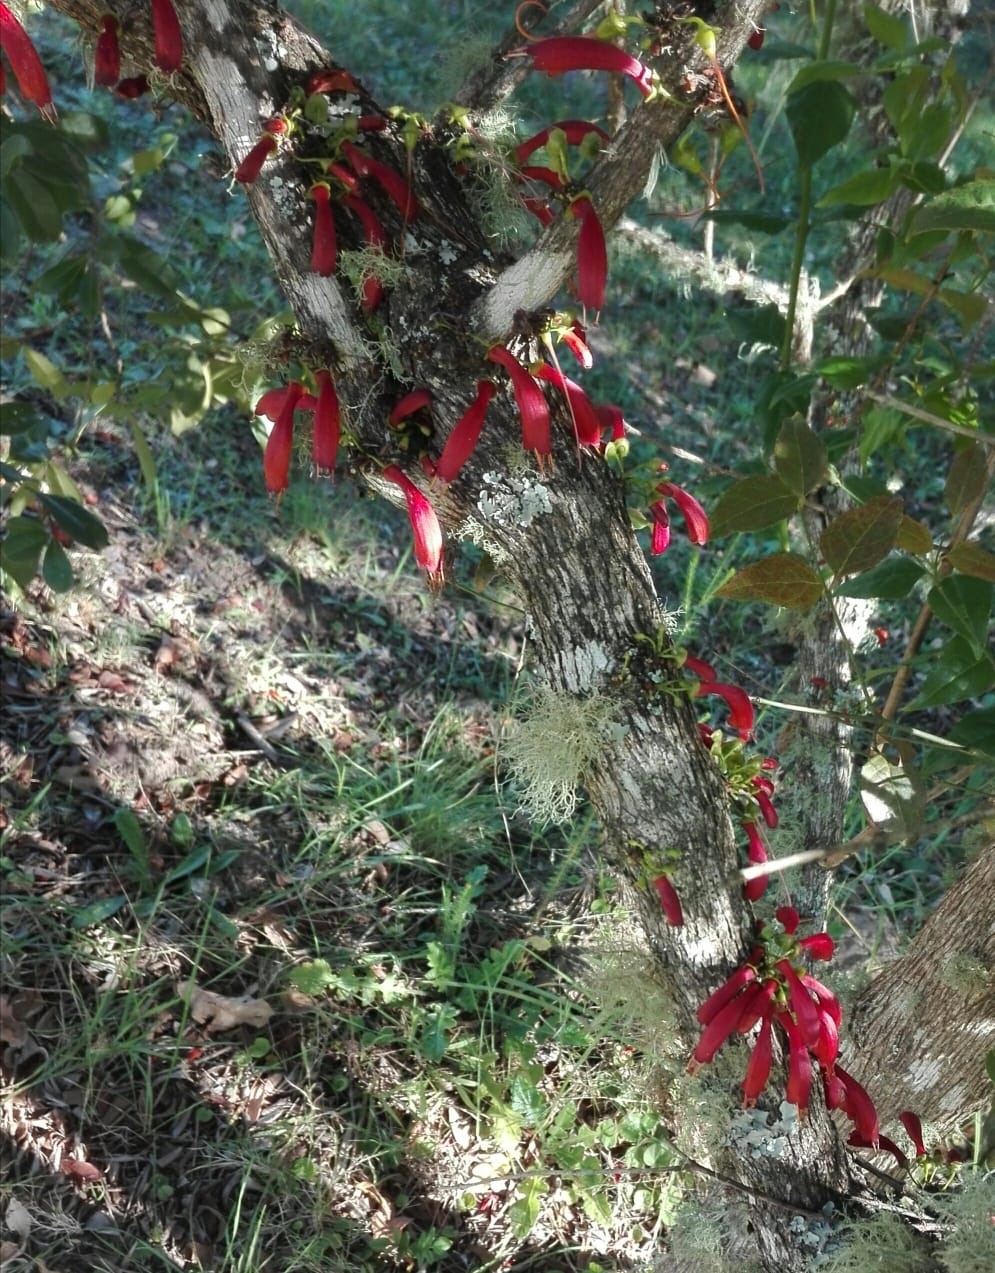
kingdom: Plantae
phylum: Tracheophyta
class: Magnoliopsida
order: Lamiales
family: Stilbaceae
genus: Halleria
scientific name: Halleria lucida
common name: Tree fuschia
